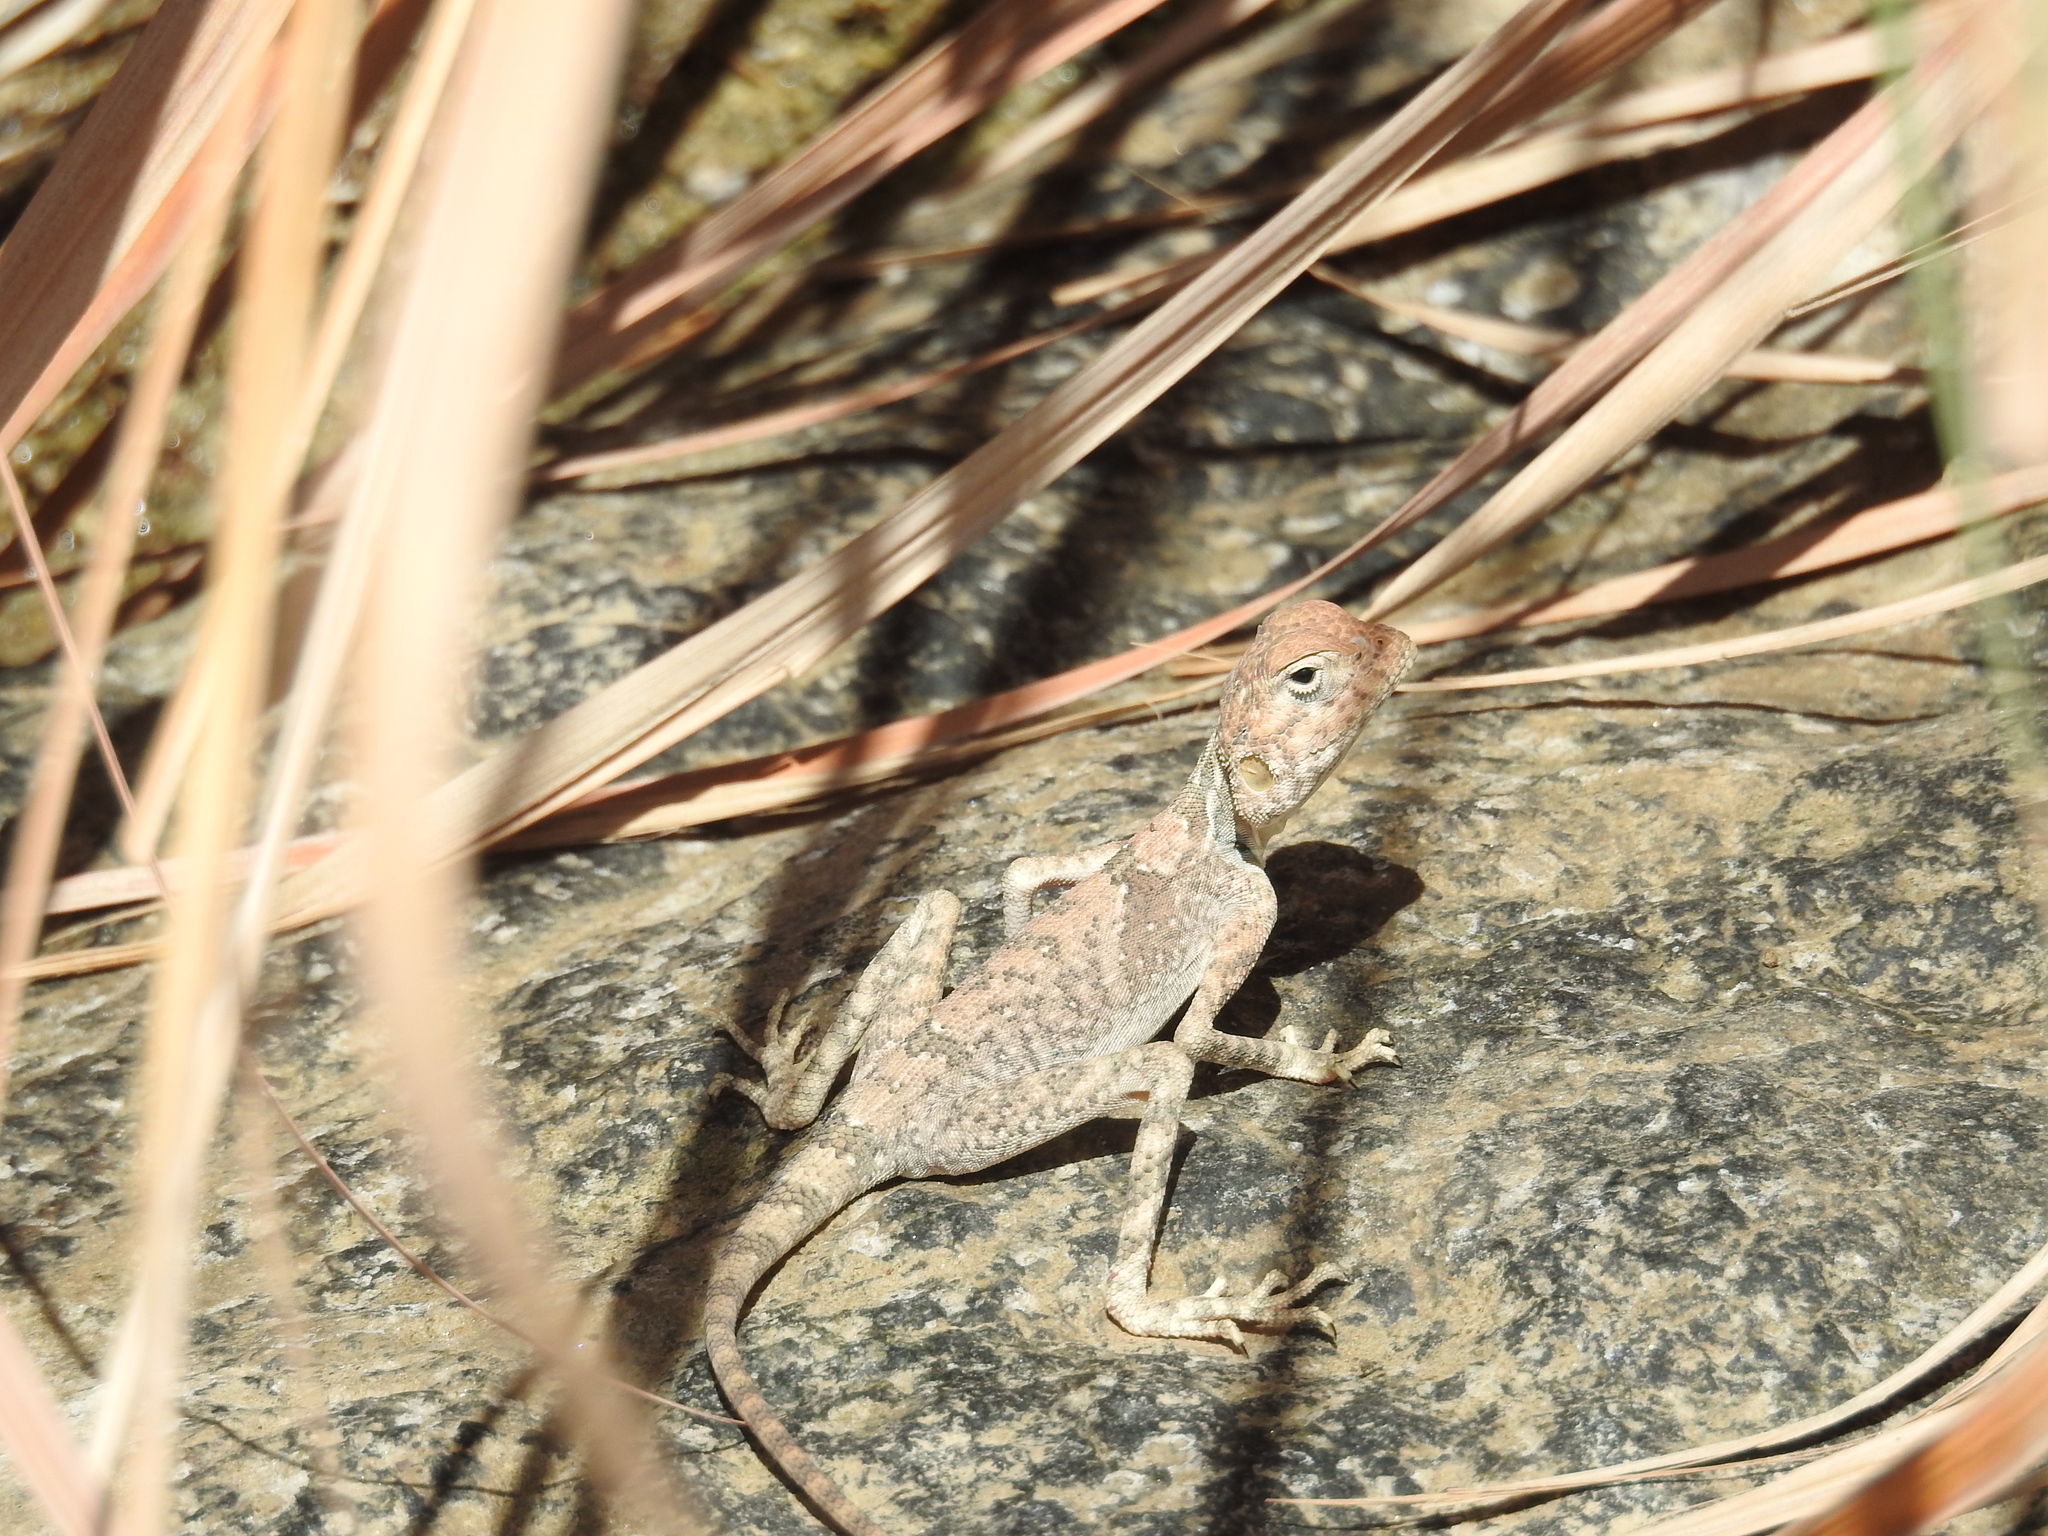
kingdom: Animalia
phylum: Chordata
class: Squamata
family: Agamidae
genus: Pseudotrapelus
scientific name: Pseudotrapelus jensvindumi
